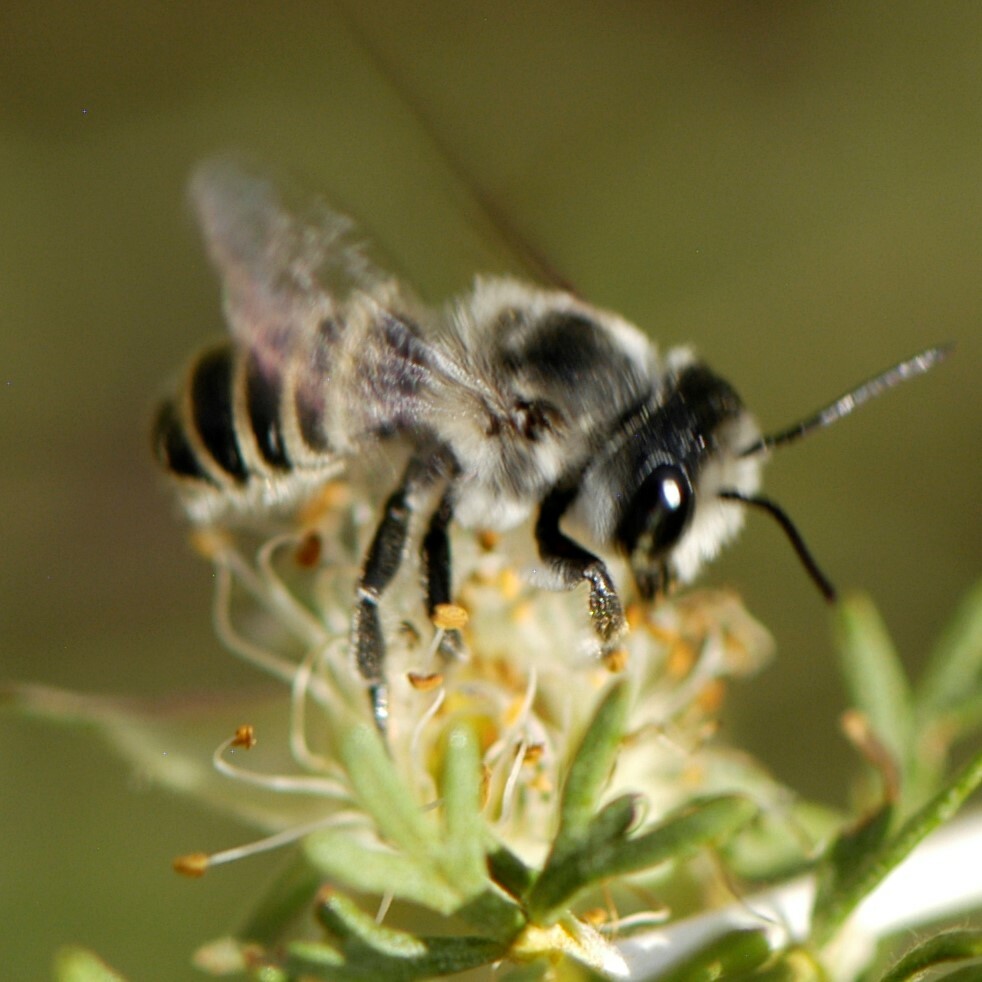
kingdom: Animalia
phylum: Arthropoda
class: Insecta
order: Hymenoptera
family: Megachilidae
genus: Megachile
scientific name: Megachile
